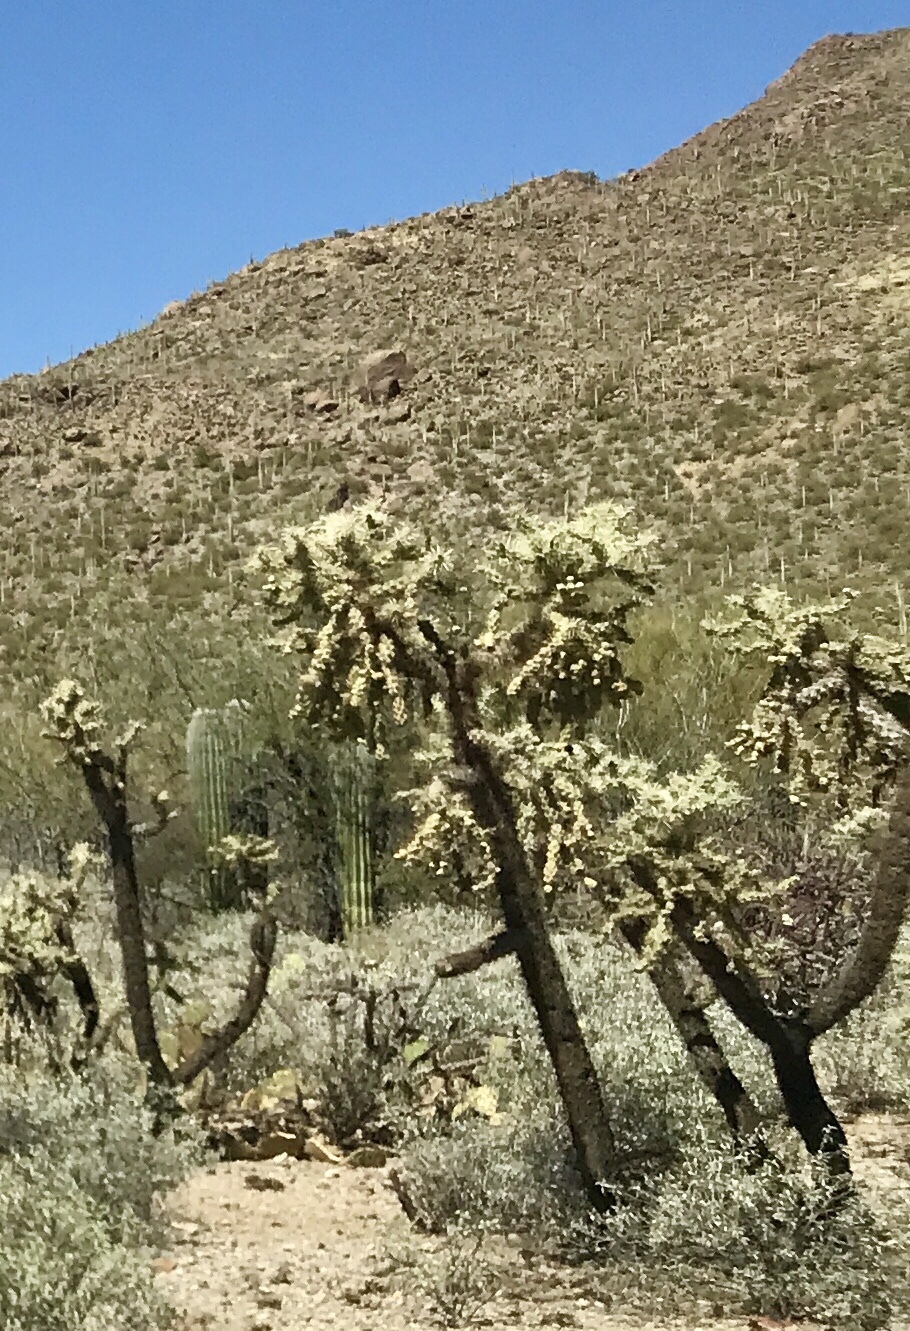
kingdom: Plantae
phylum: Tracheophyta
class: Magnoliopsida
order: Caryophyllales
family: Cactaceae
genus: Cylindropuntia
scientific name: Cylindropuntia fulgida
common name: Jumping cholla
